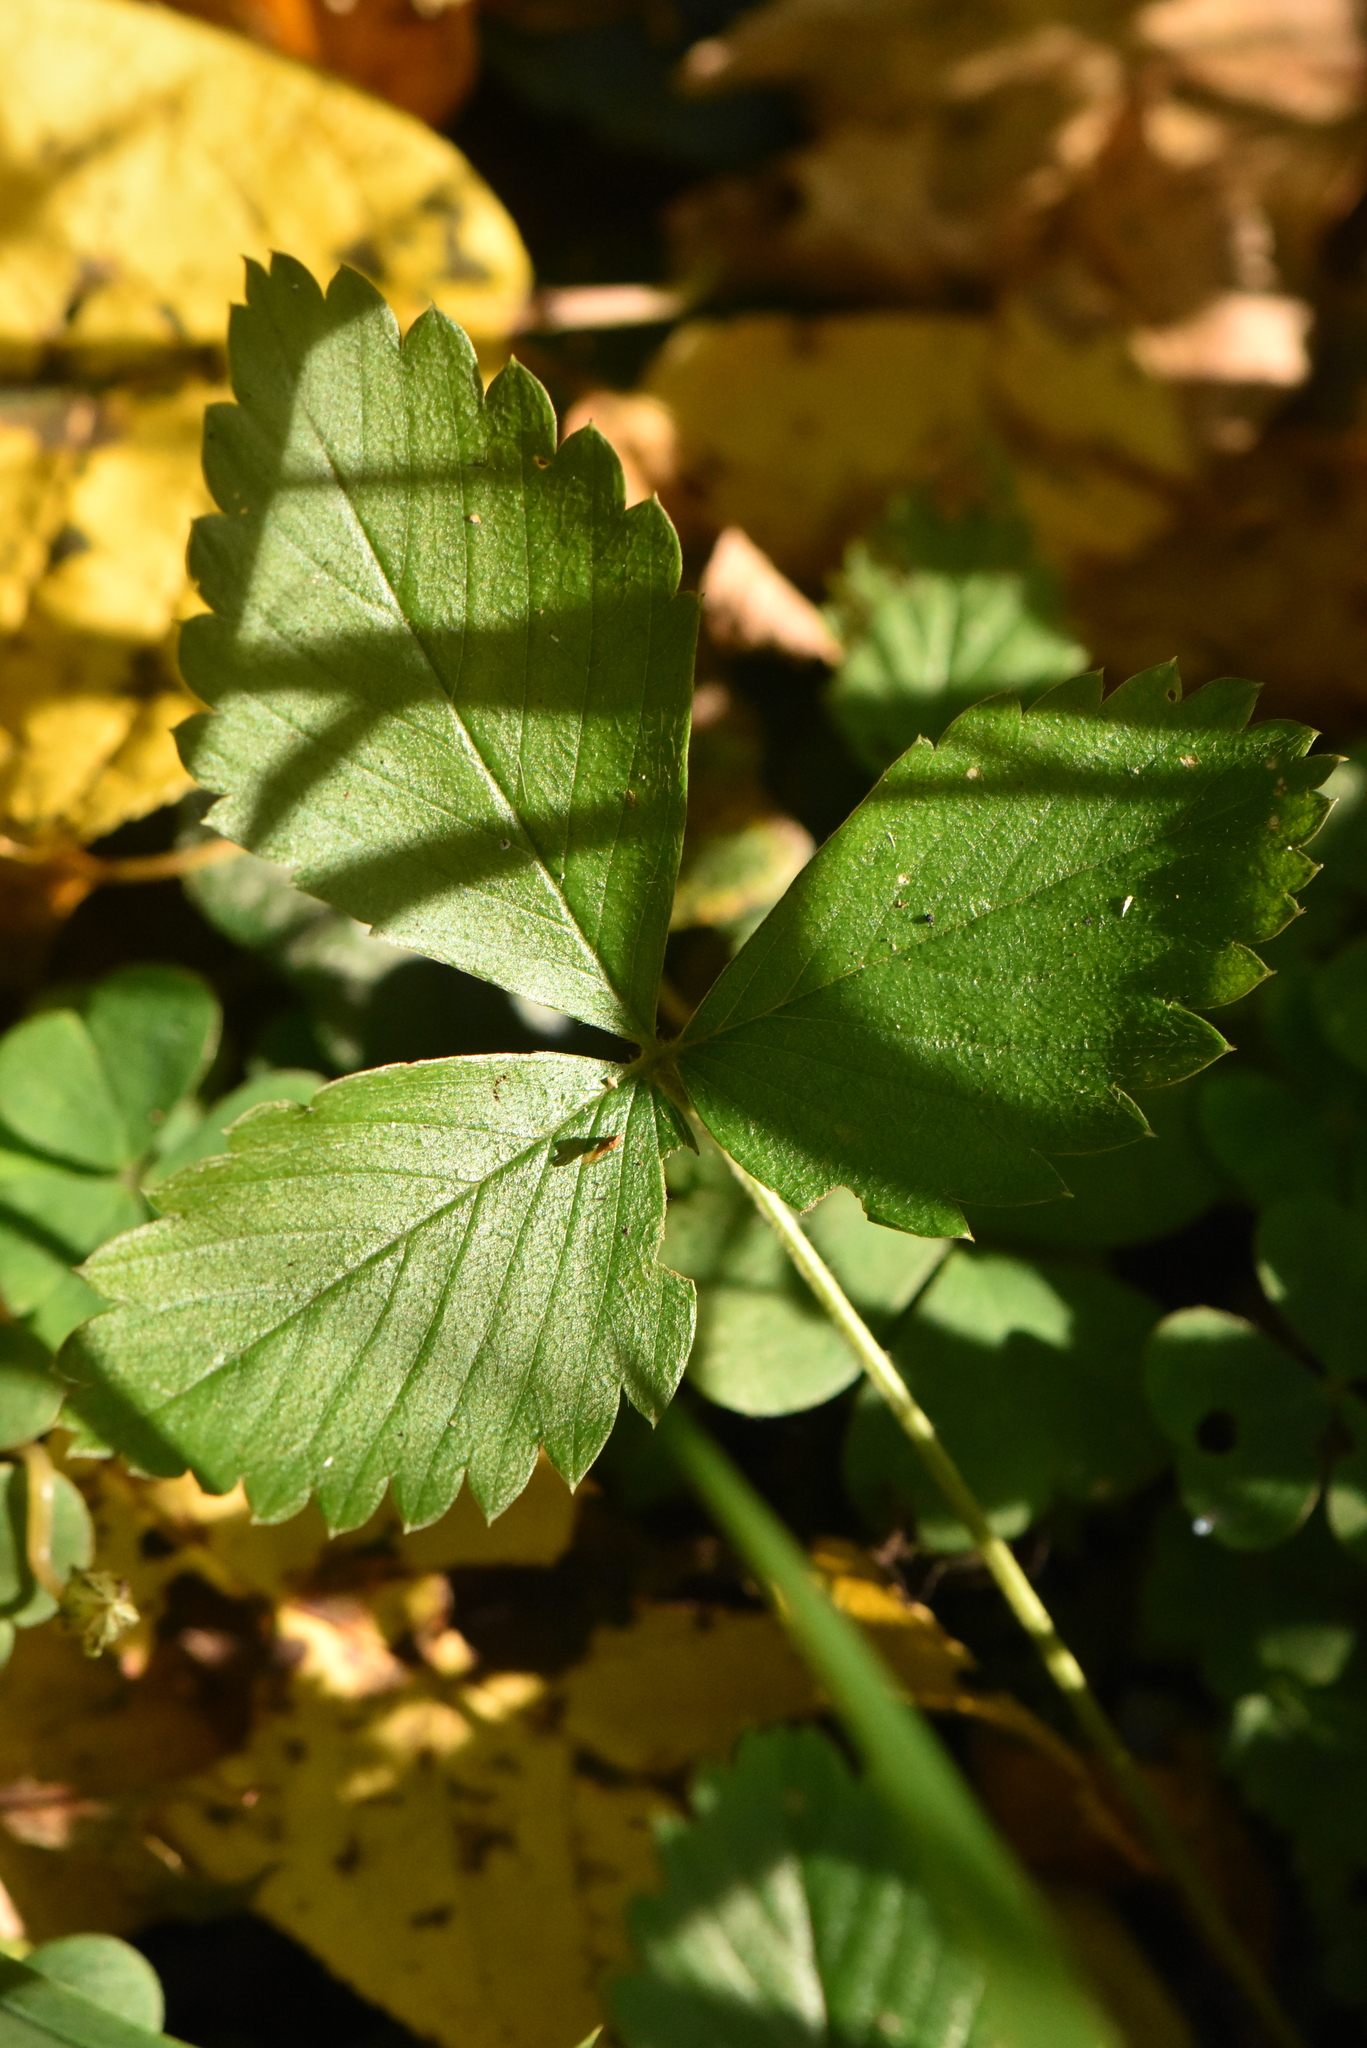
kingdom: Plantae
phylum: Tracheophyta
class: Magnoliopsida
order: Rosales
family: Rosaceae
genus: Fragaria
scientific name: Fragaria vesca
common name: Wild strawberry
